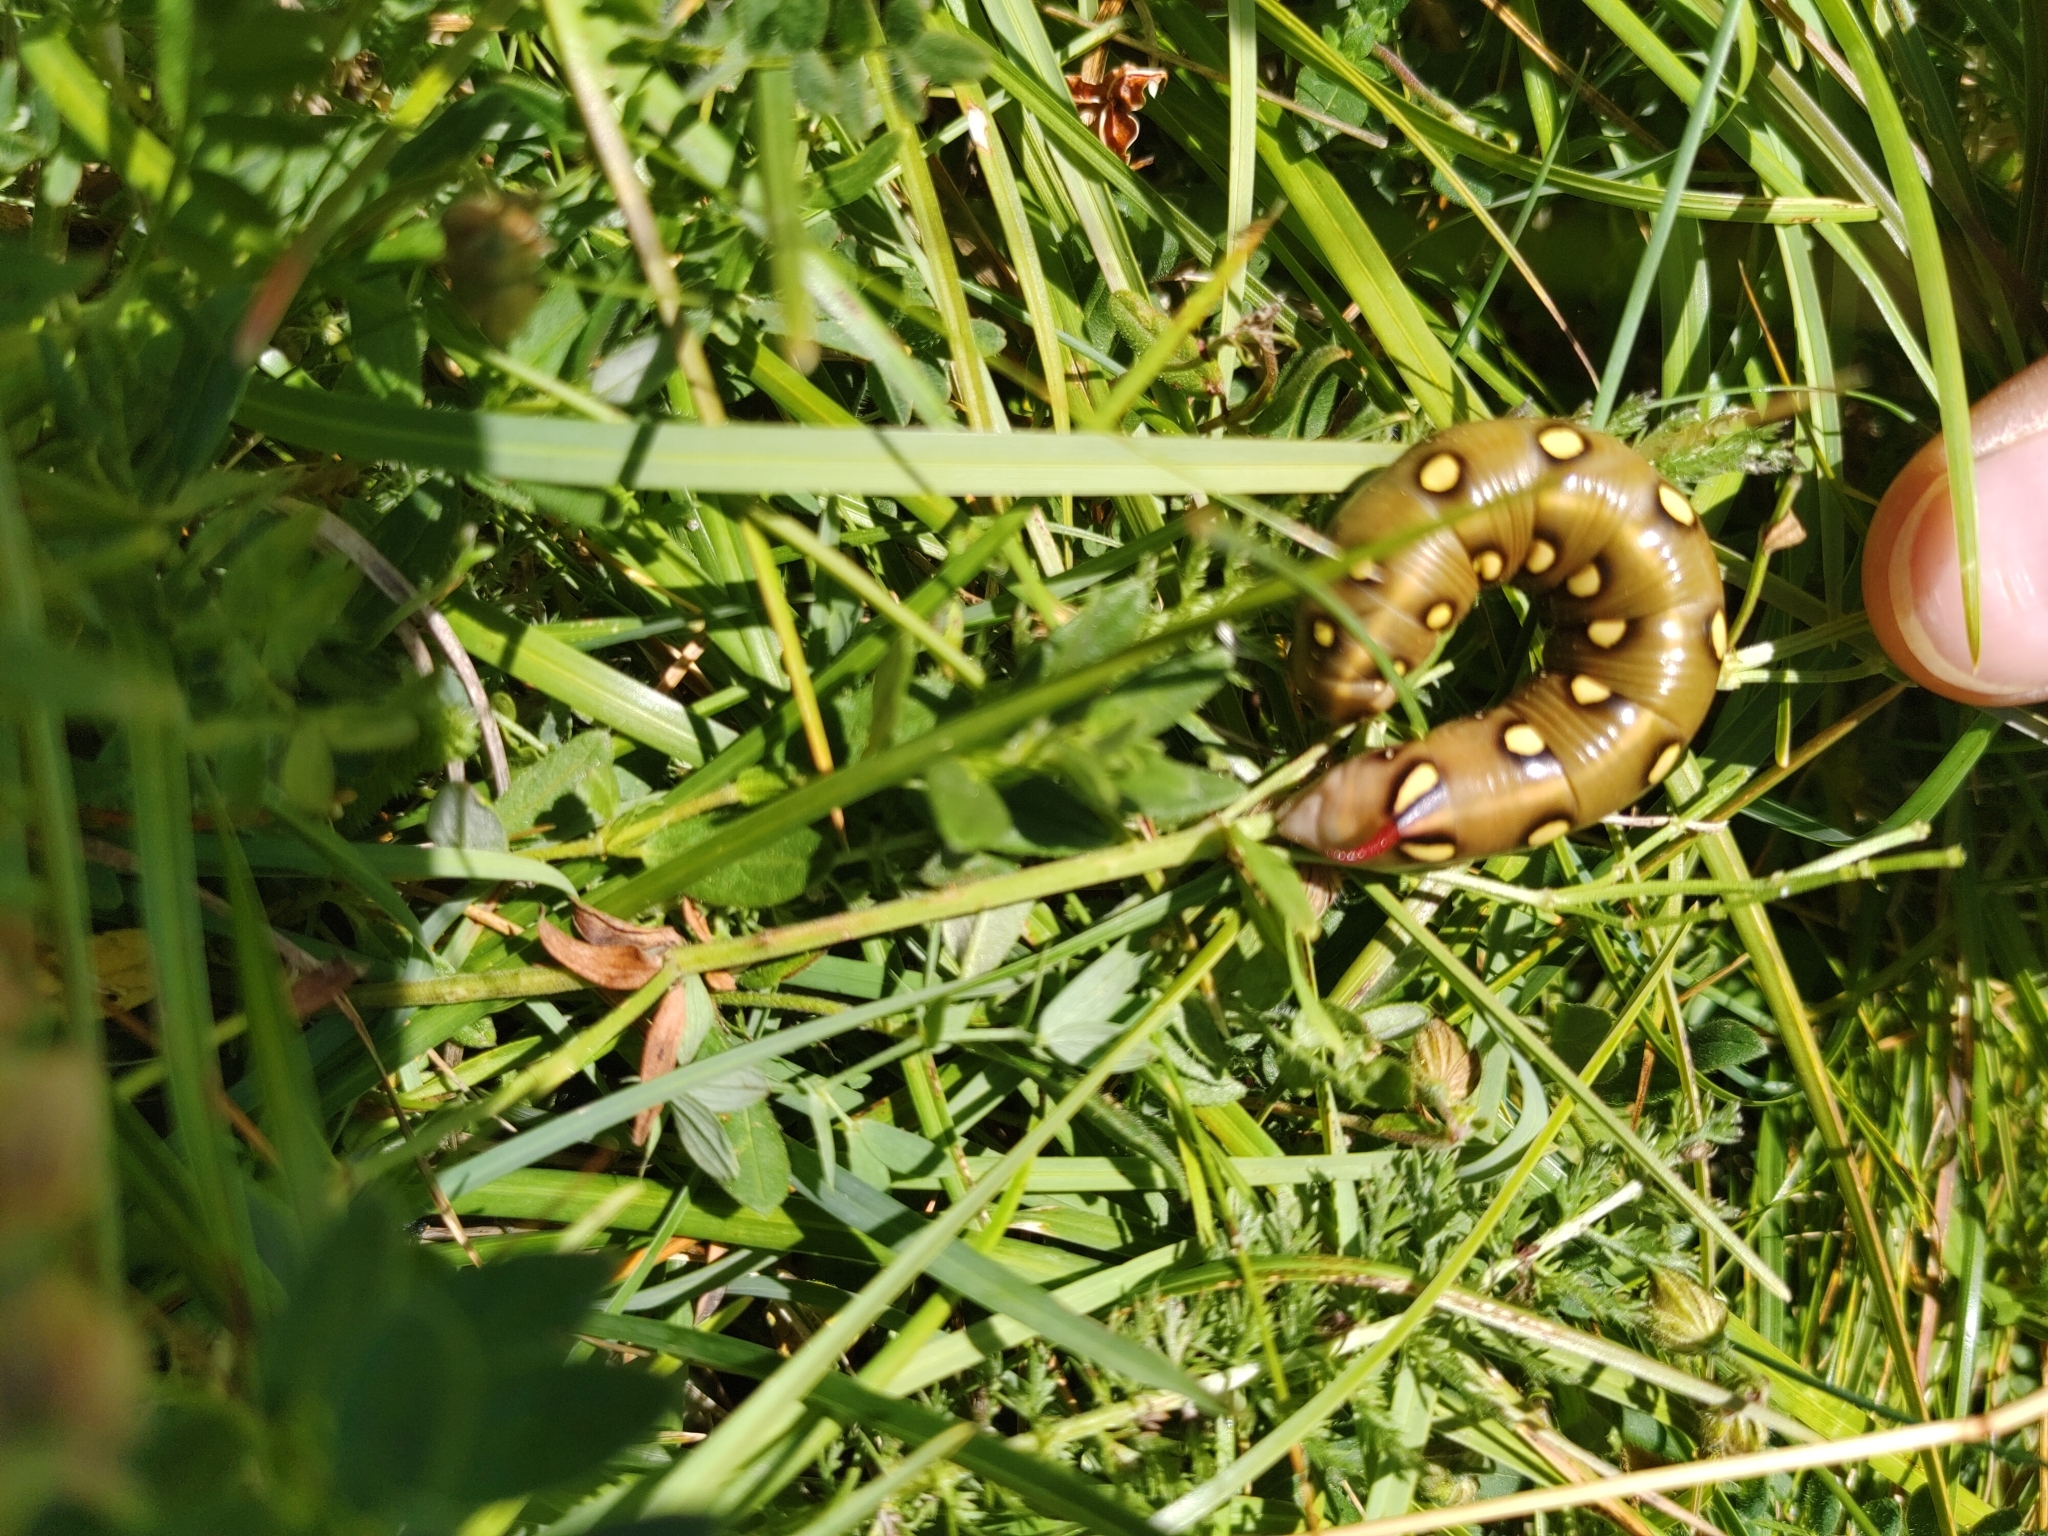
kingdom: Animalia
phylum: Arthropoda
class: Insecta
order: Lepidoptera
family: Sphingidae
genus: Hyles
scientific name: Hyles gallii
